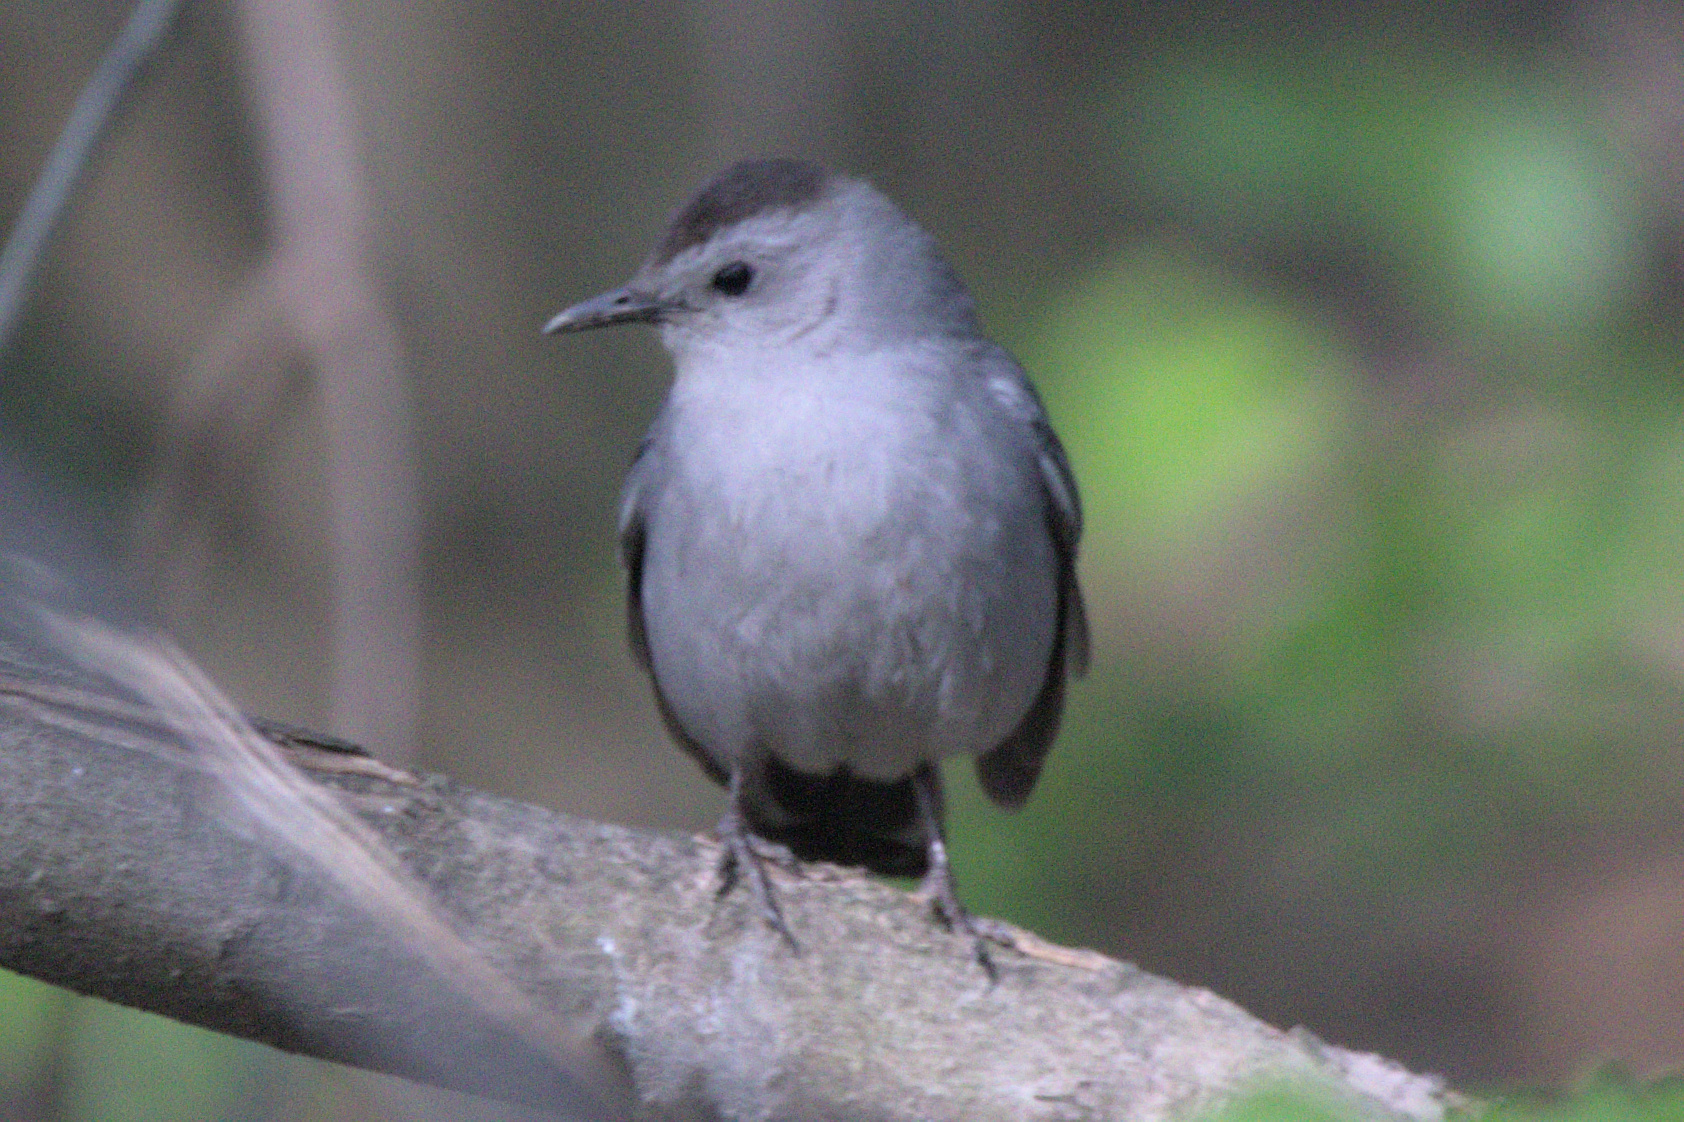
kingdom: Animalia
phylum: Chordata
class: Aves
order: Passeriformes
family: Mimidae
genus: Dumetella
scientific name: Dumetella carolinensis
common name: Gray catbird
